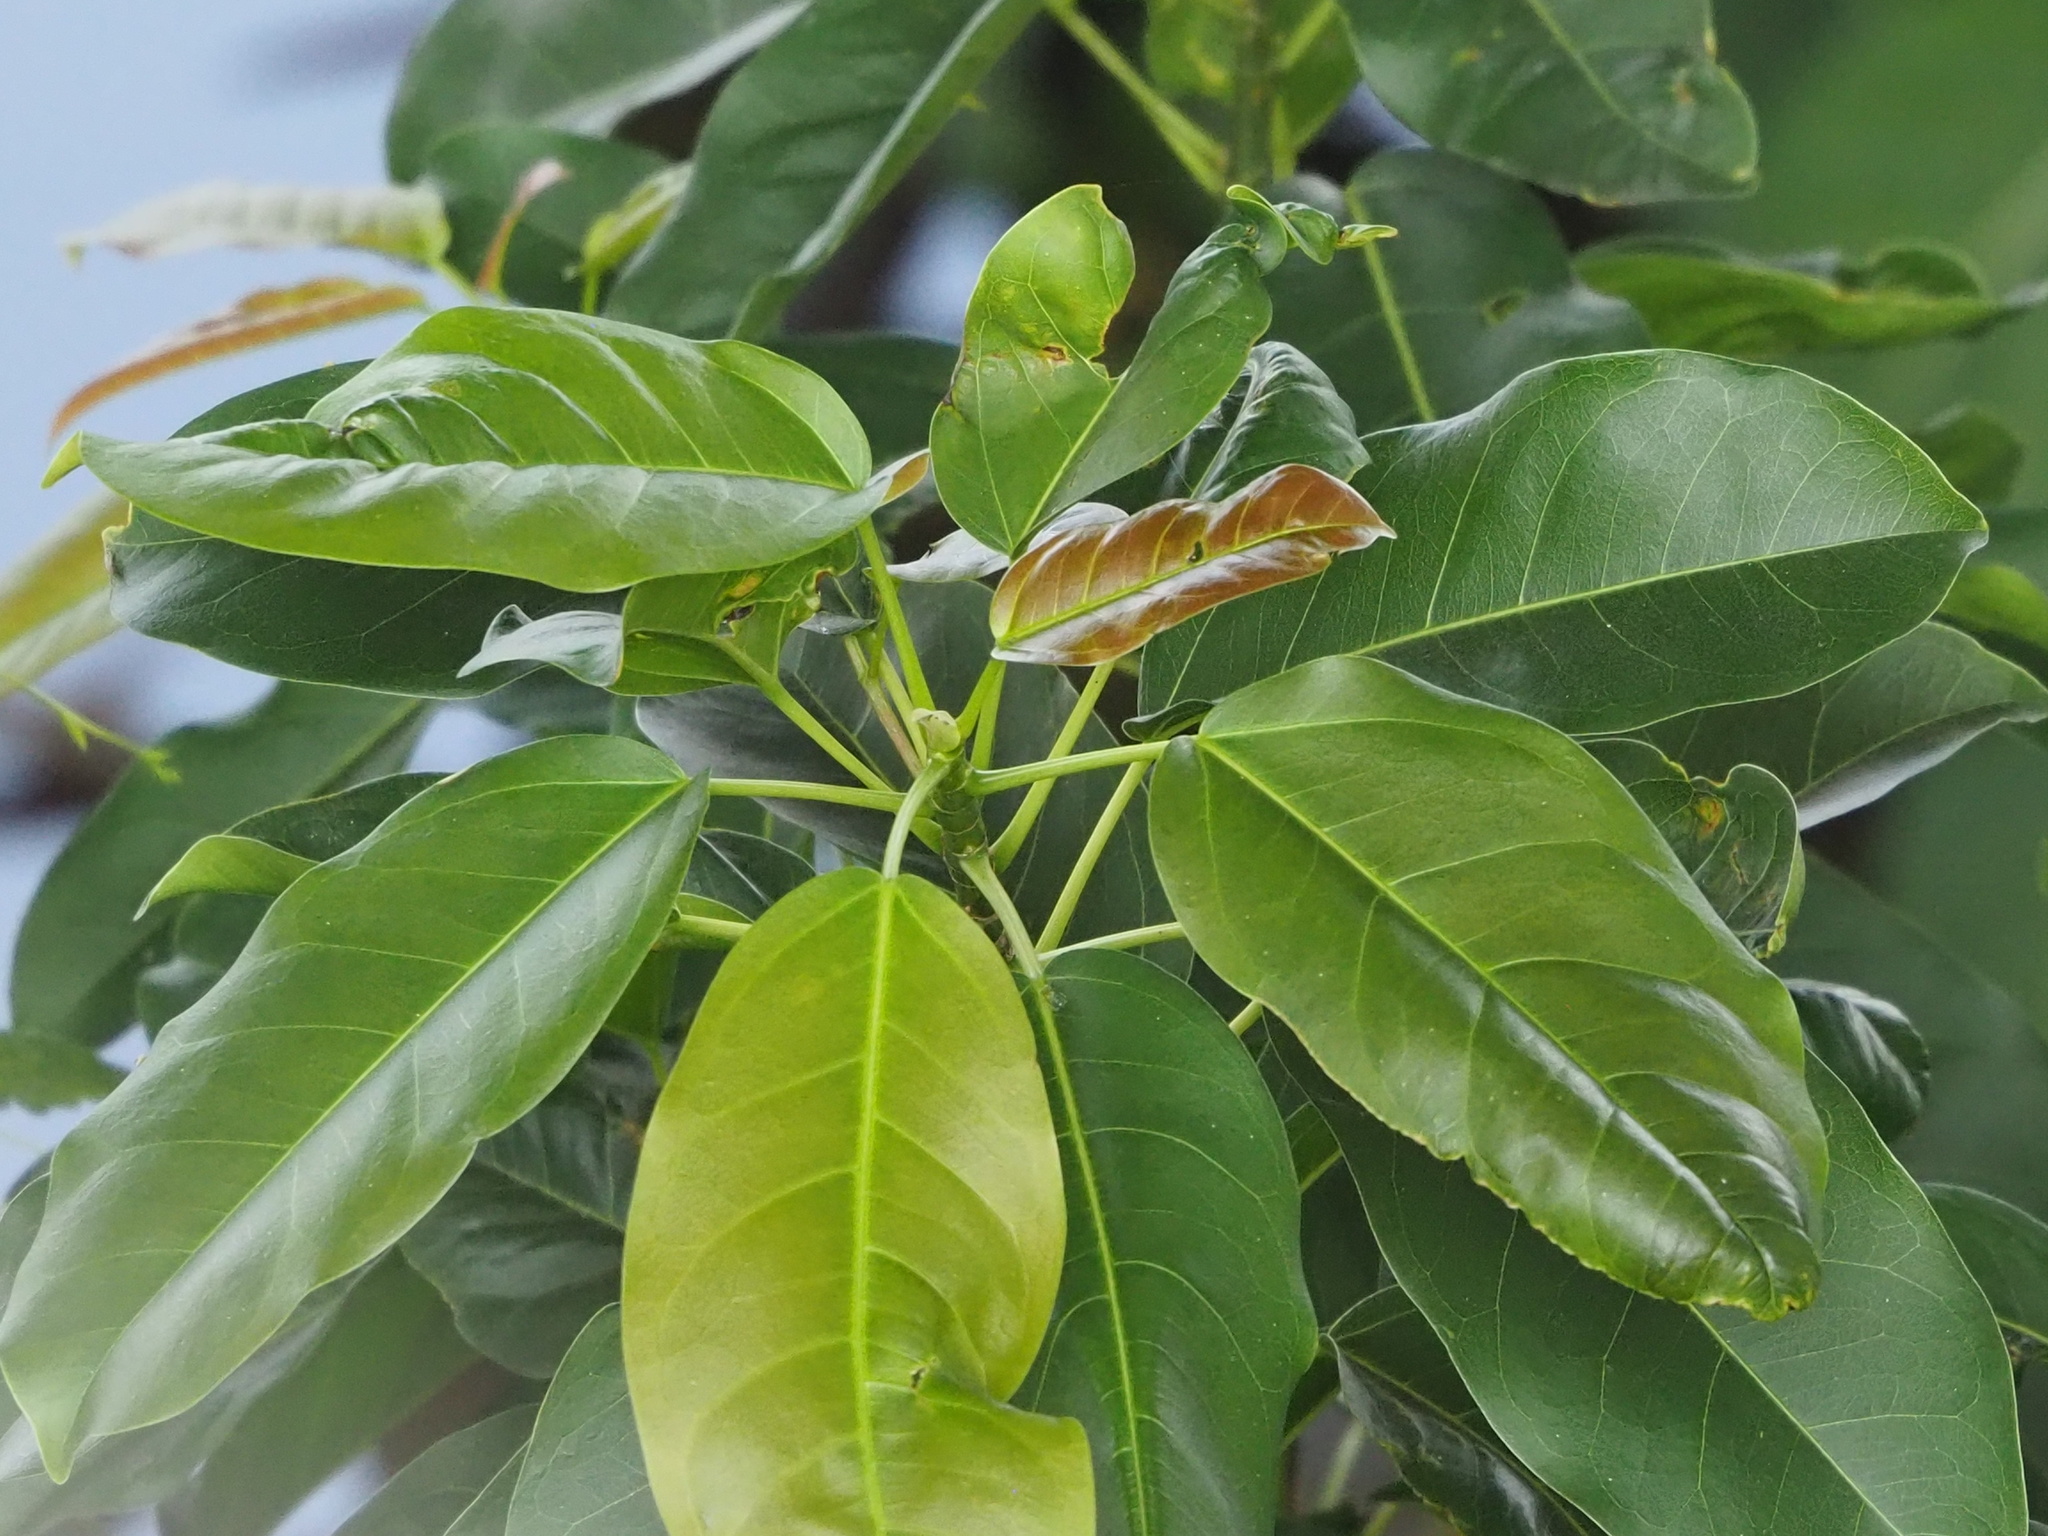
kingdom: Plantae
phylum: Tracheophyta
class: Magnoliopsida
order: Rosales
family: Moraceae
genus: Ficus
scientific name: Ficus subpisocarpa
